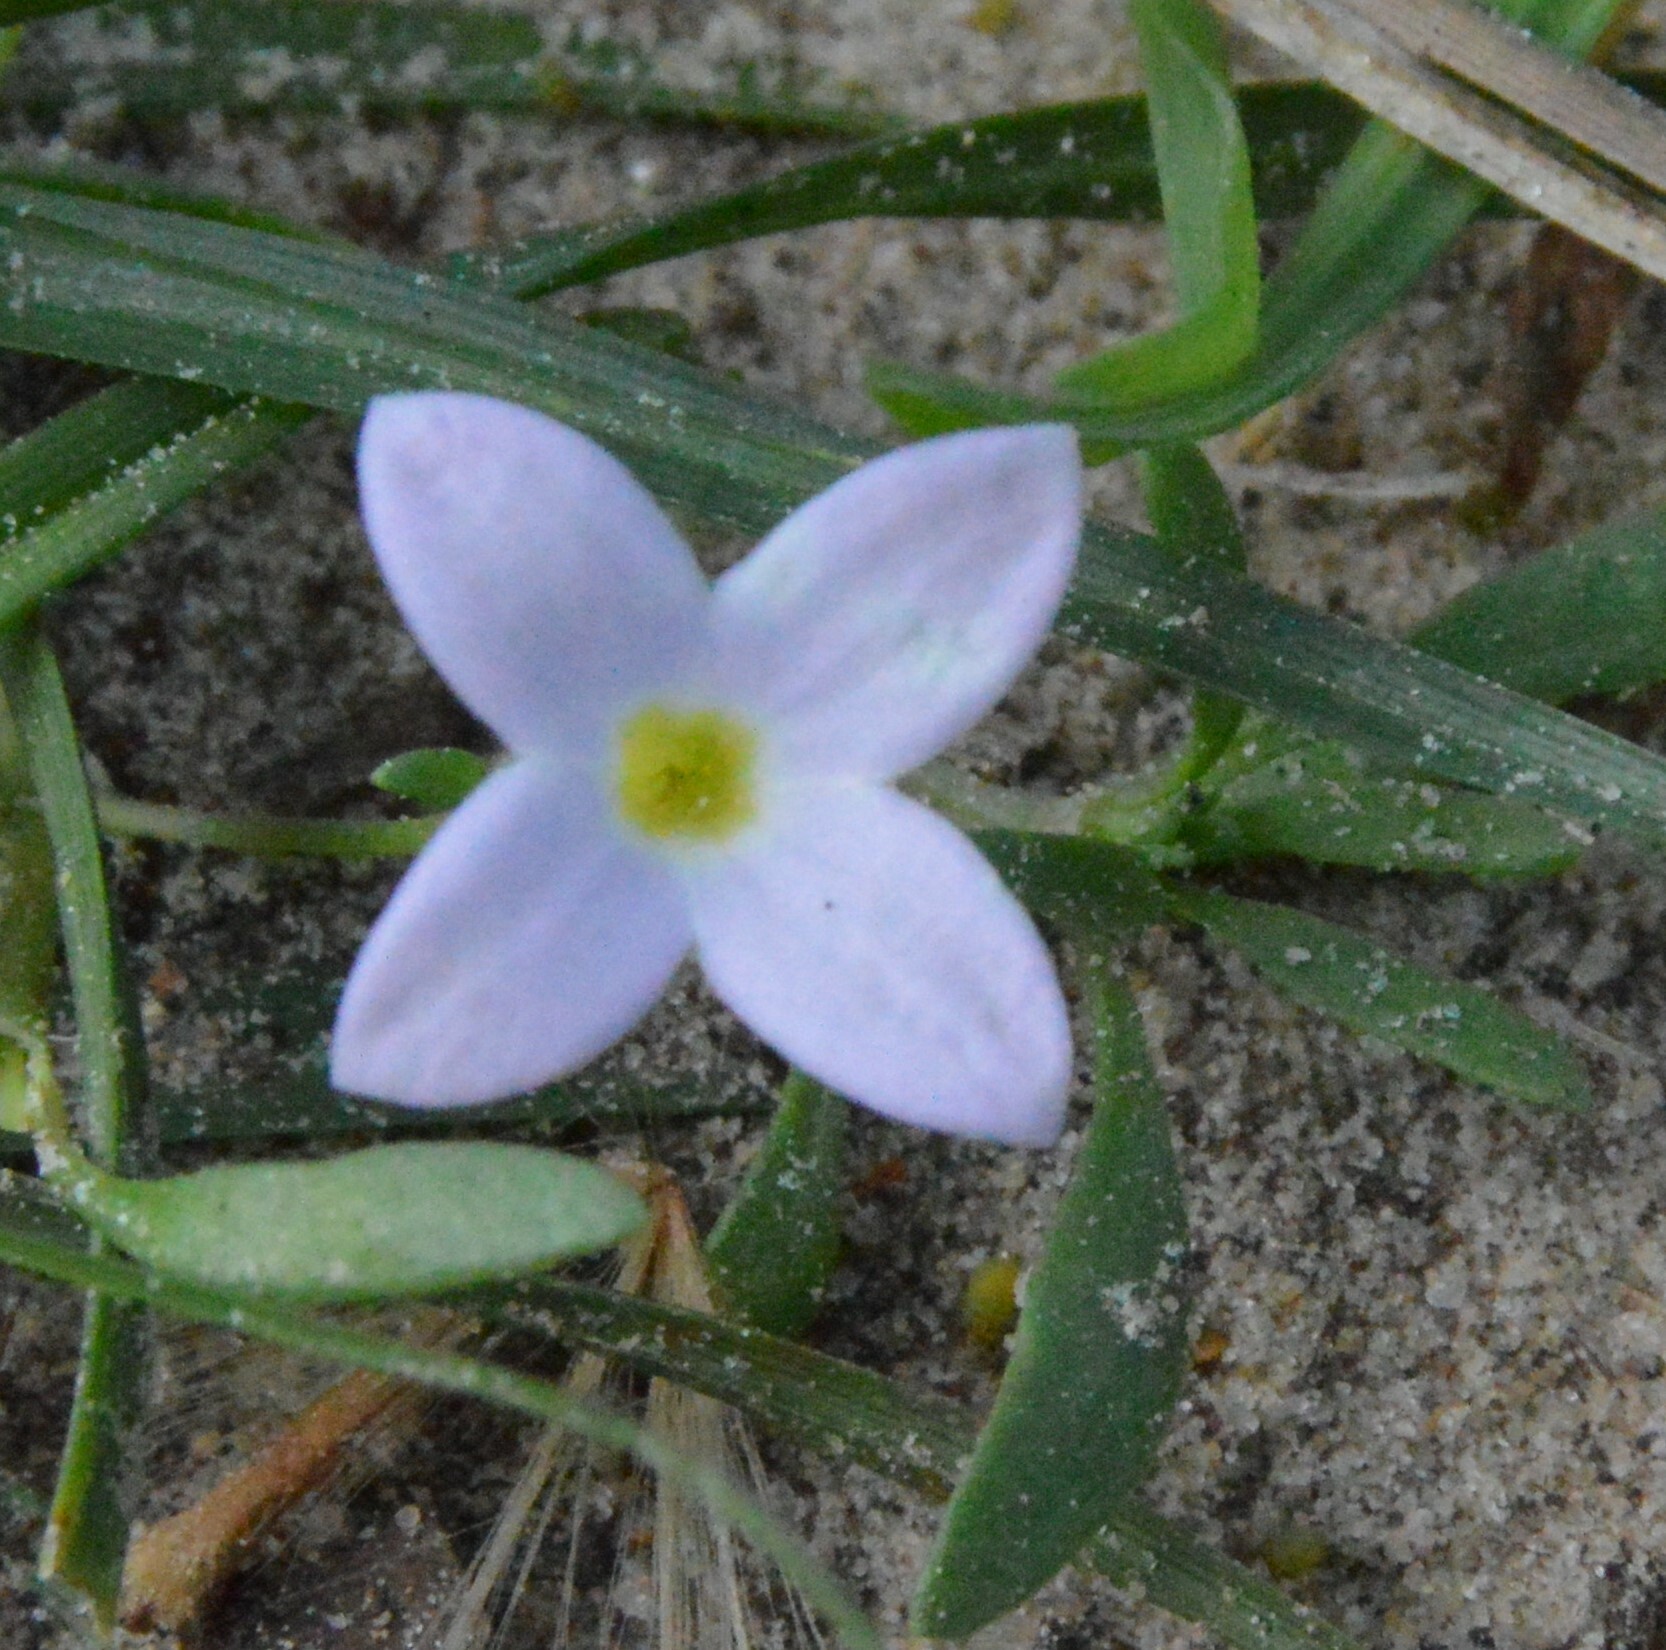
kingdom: Plantae
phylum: Tracheophyta
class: Magnoliopsida
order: Gentianales
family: Rubiaceae
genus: Houstonia
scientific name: Houstonia rosea
